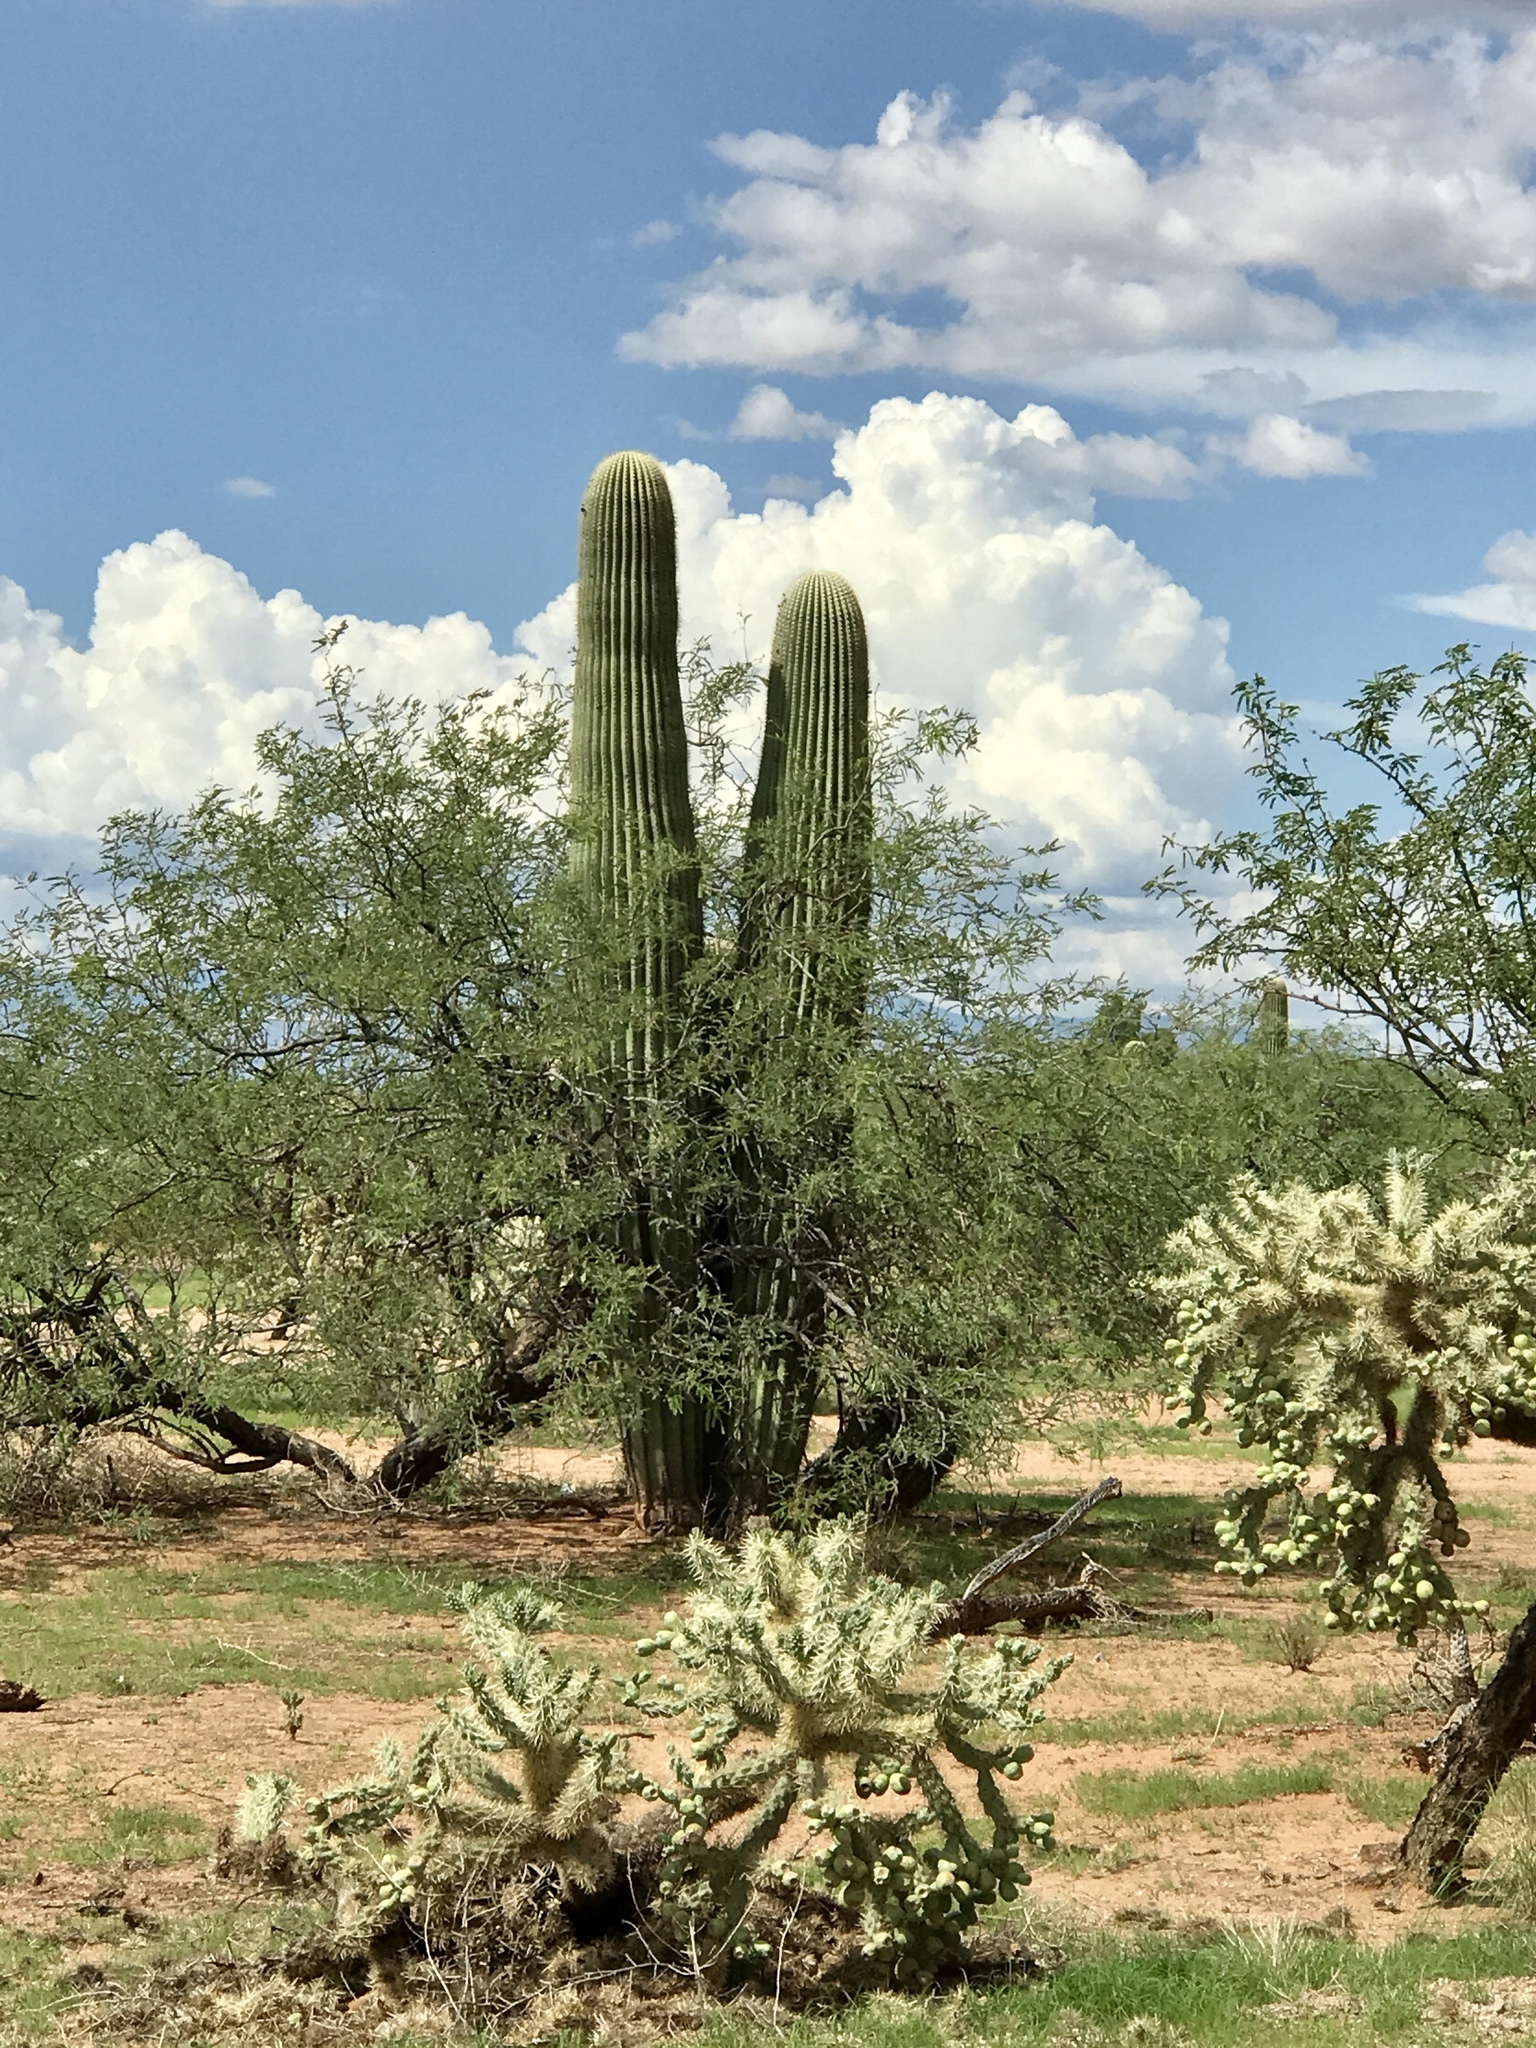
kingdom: Plantae
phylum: Tracheophyta
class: Magnoliopsida
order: Fabales
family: Fabaceae
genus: Prosopis
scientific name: Prosopis velutina
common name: Velvet mesquite
